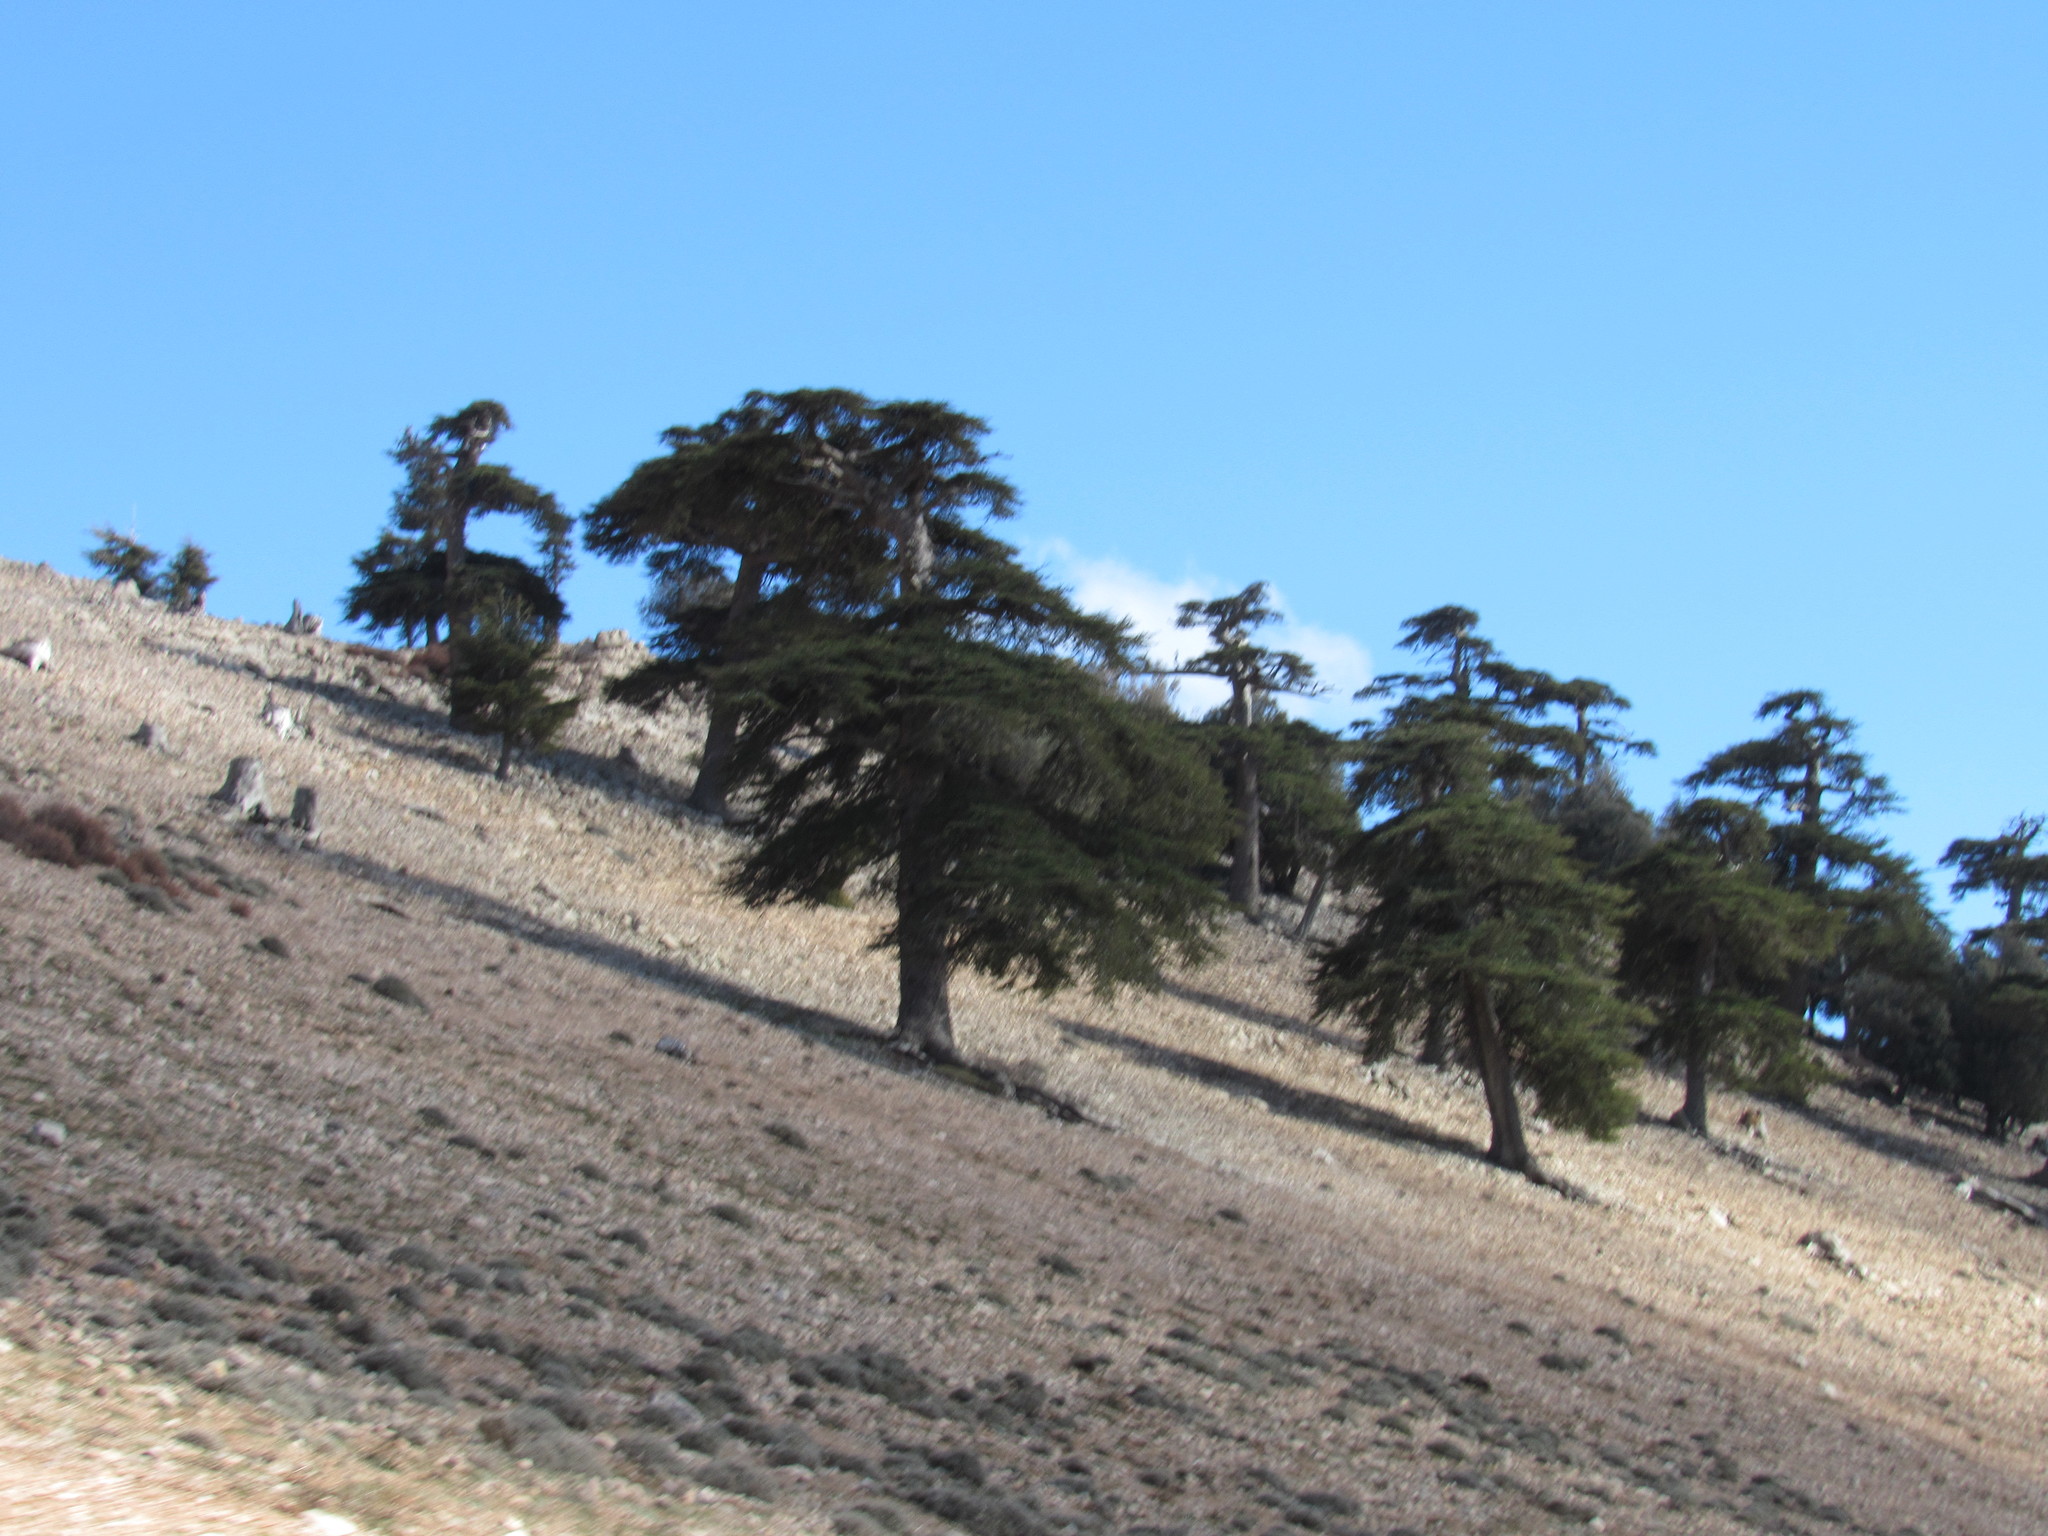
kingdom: Plantae
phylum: Tracheophyta
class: Pinopsida
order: Pinales
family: Pinaceae
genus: Cedrus
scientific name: Cedrus atlantica
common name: Atlas cedar
